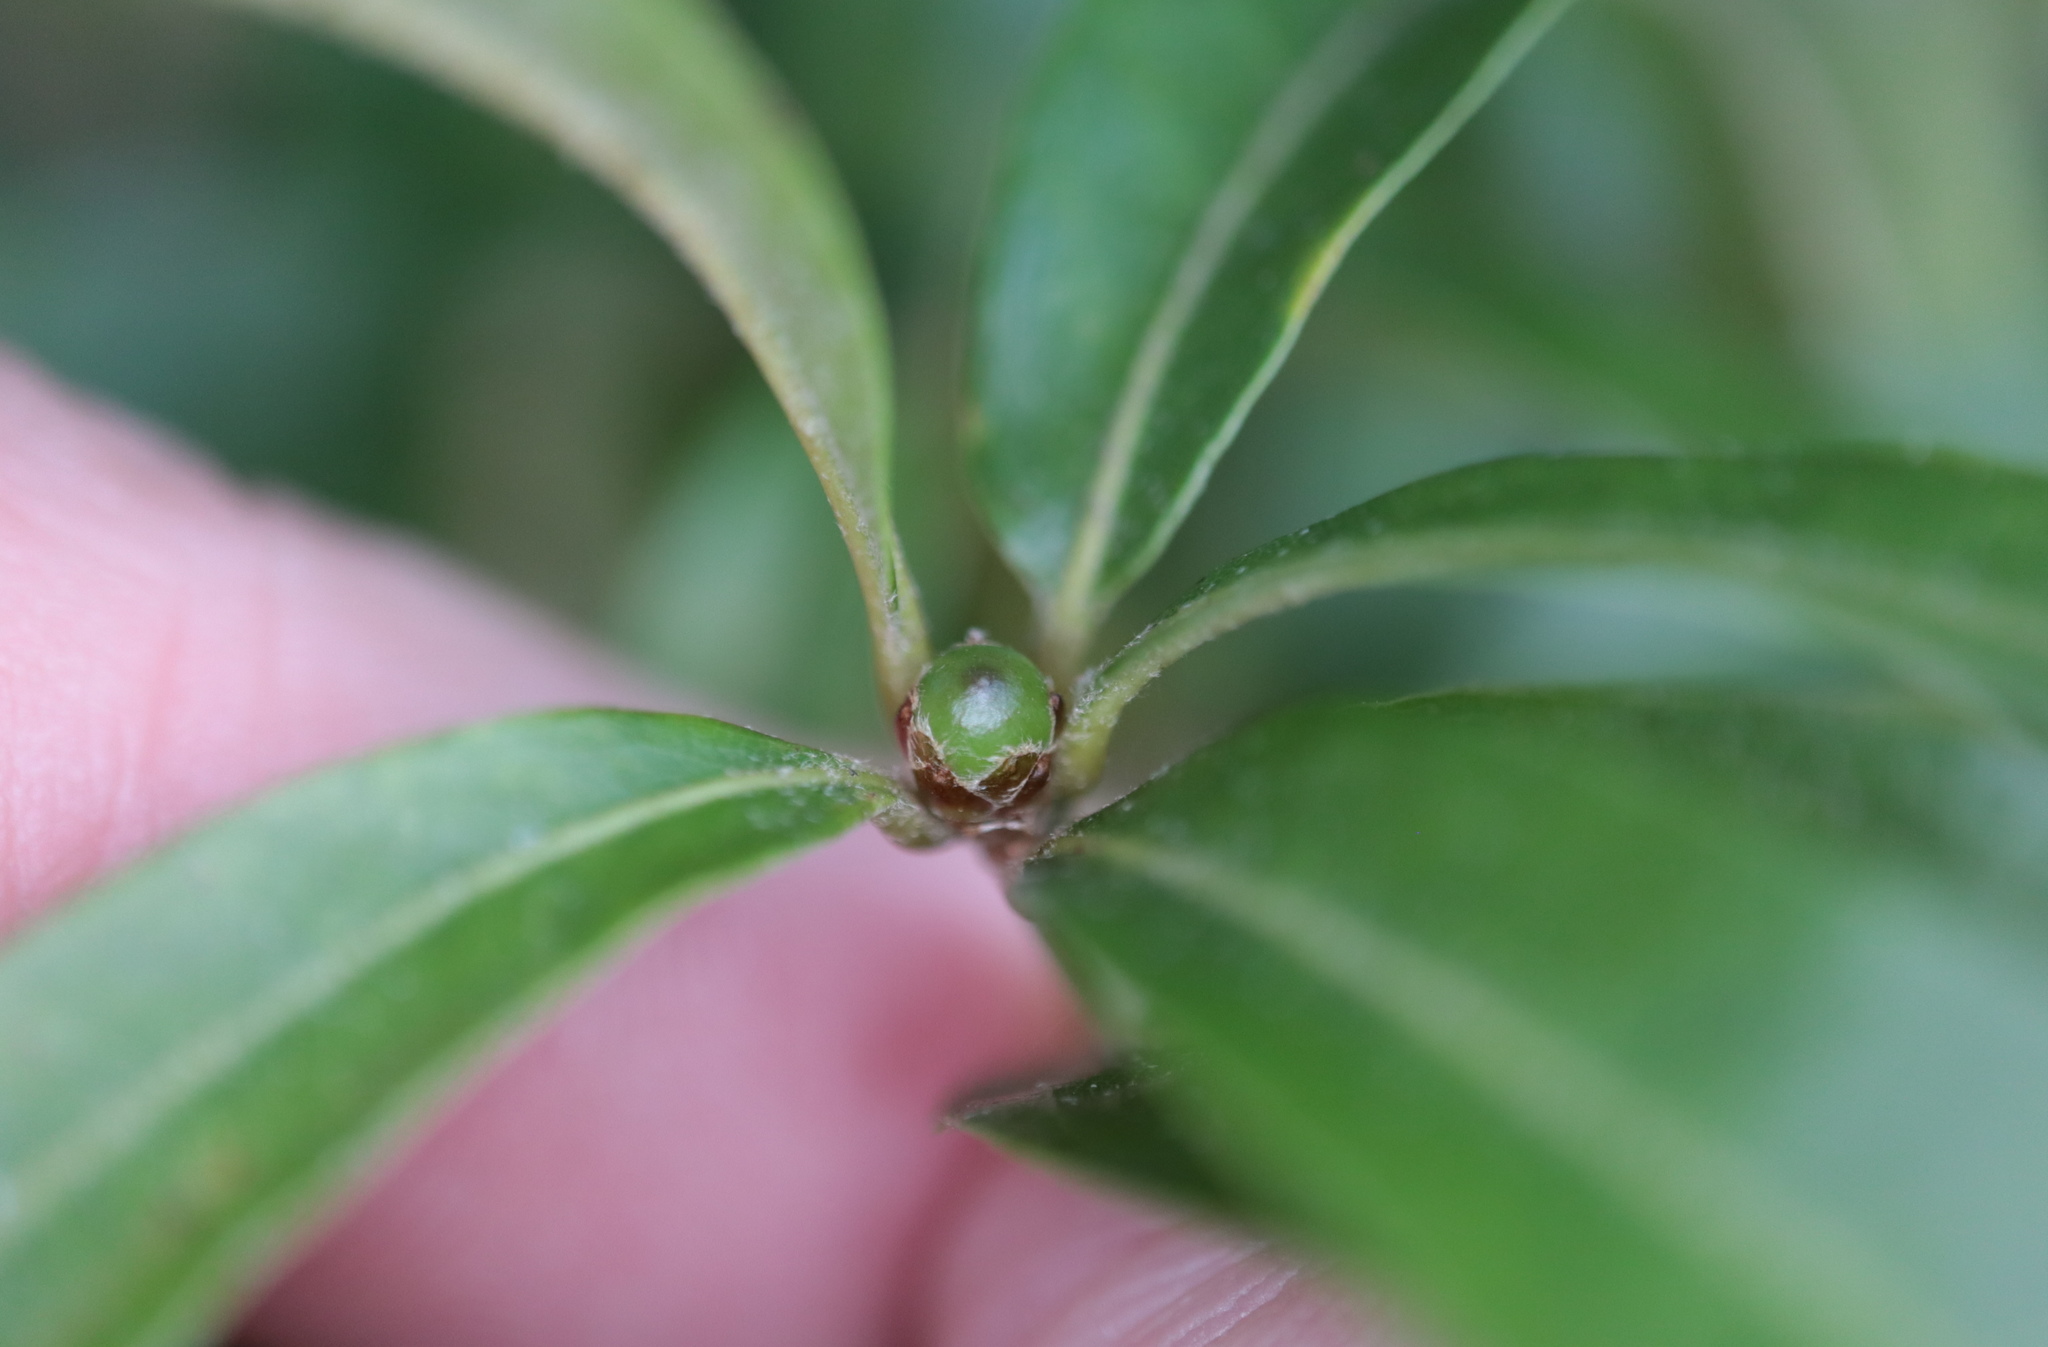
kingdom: Animalia
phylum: Arthropoda
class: Insecta
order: Hymenoptera
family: Cynipidae
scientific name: Cynipidae
